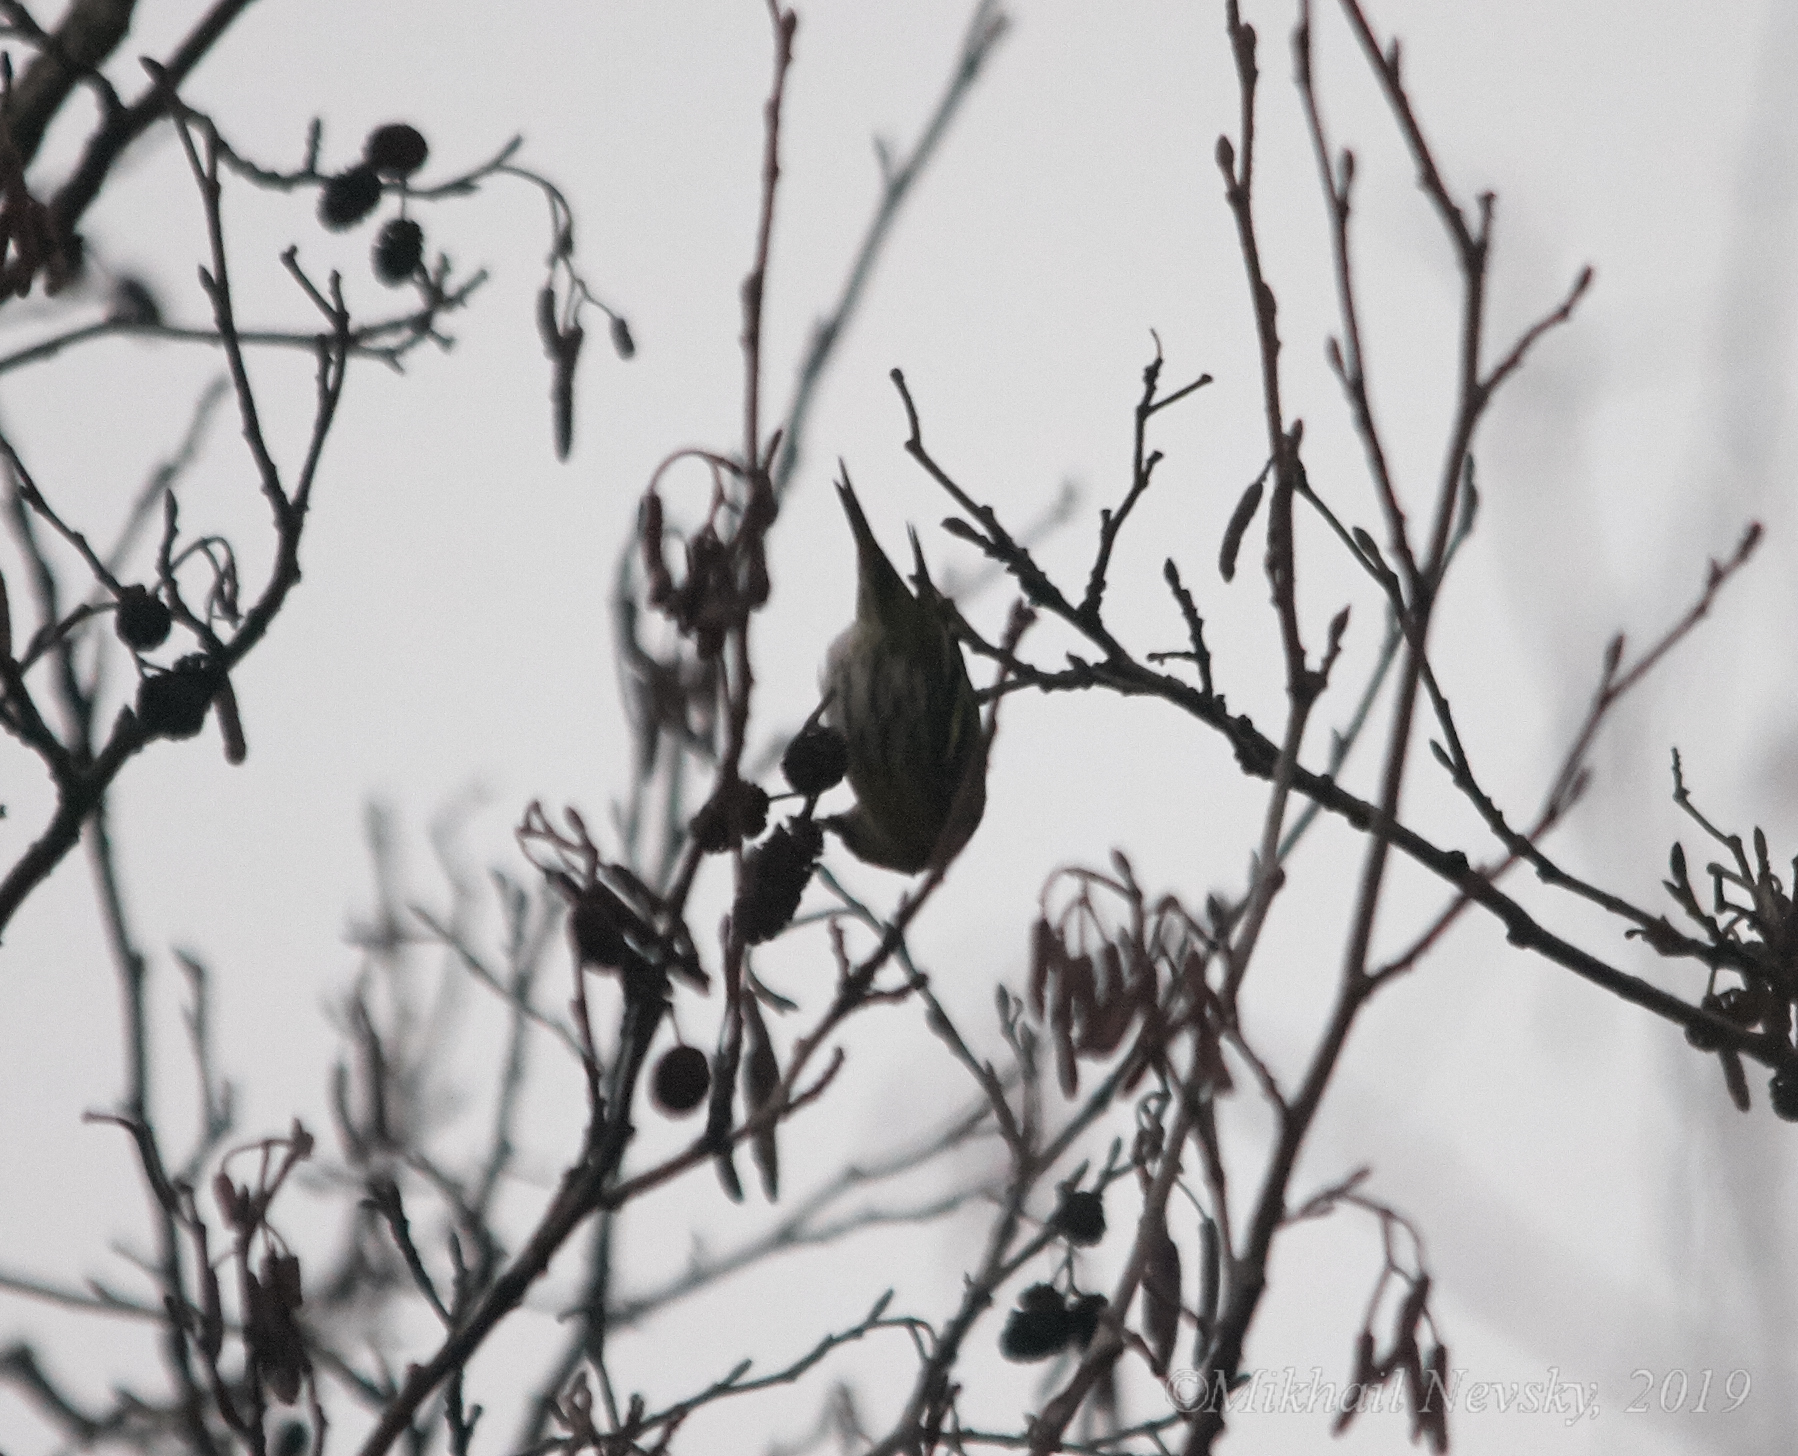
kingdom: Animalia
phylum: Chordata
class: Aves
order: Passeriformes
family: Fringillidae
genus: Spinus
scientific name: Spinus spinus
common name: Eurasian siskin
